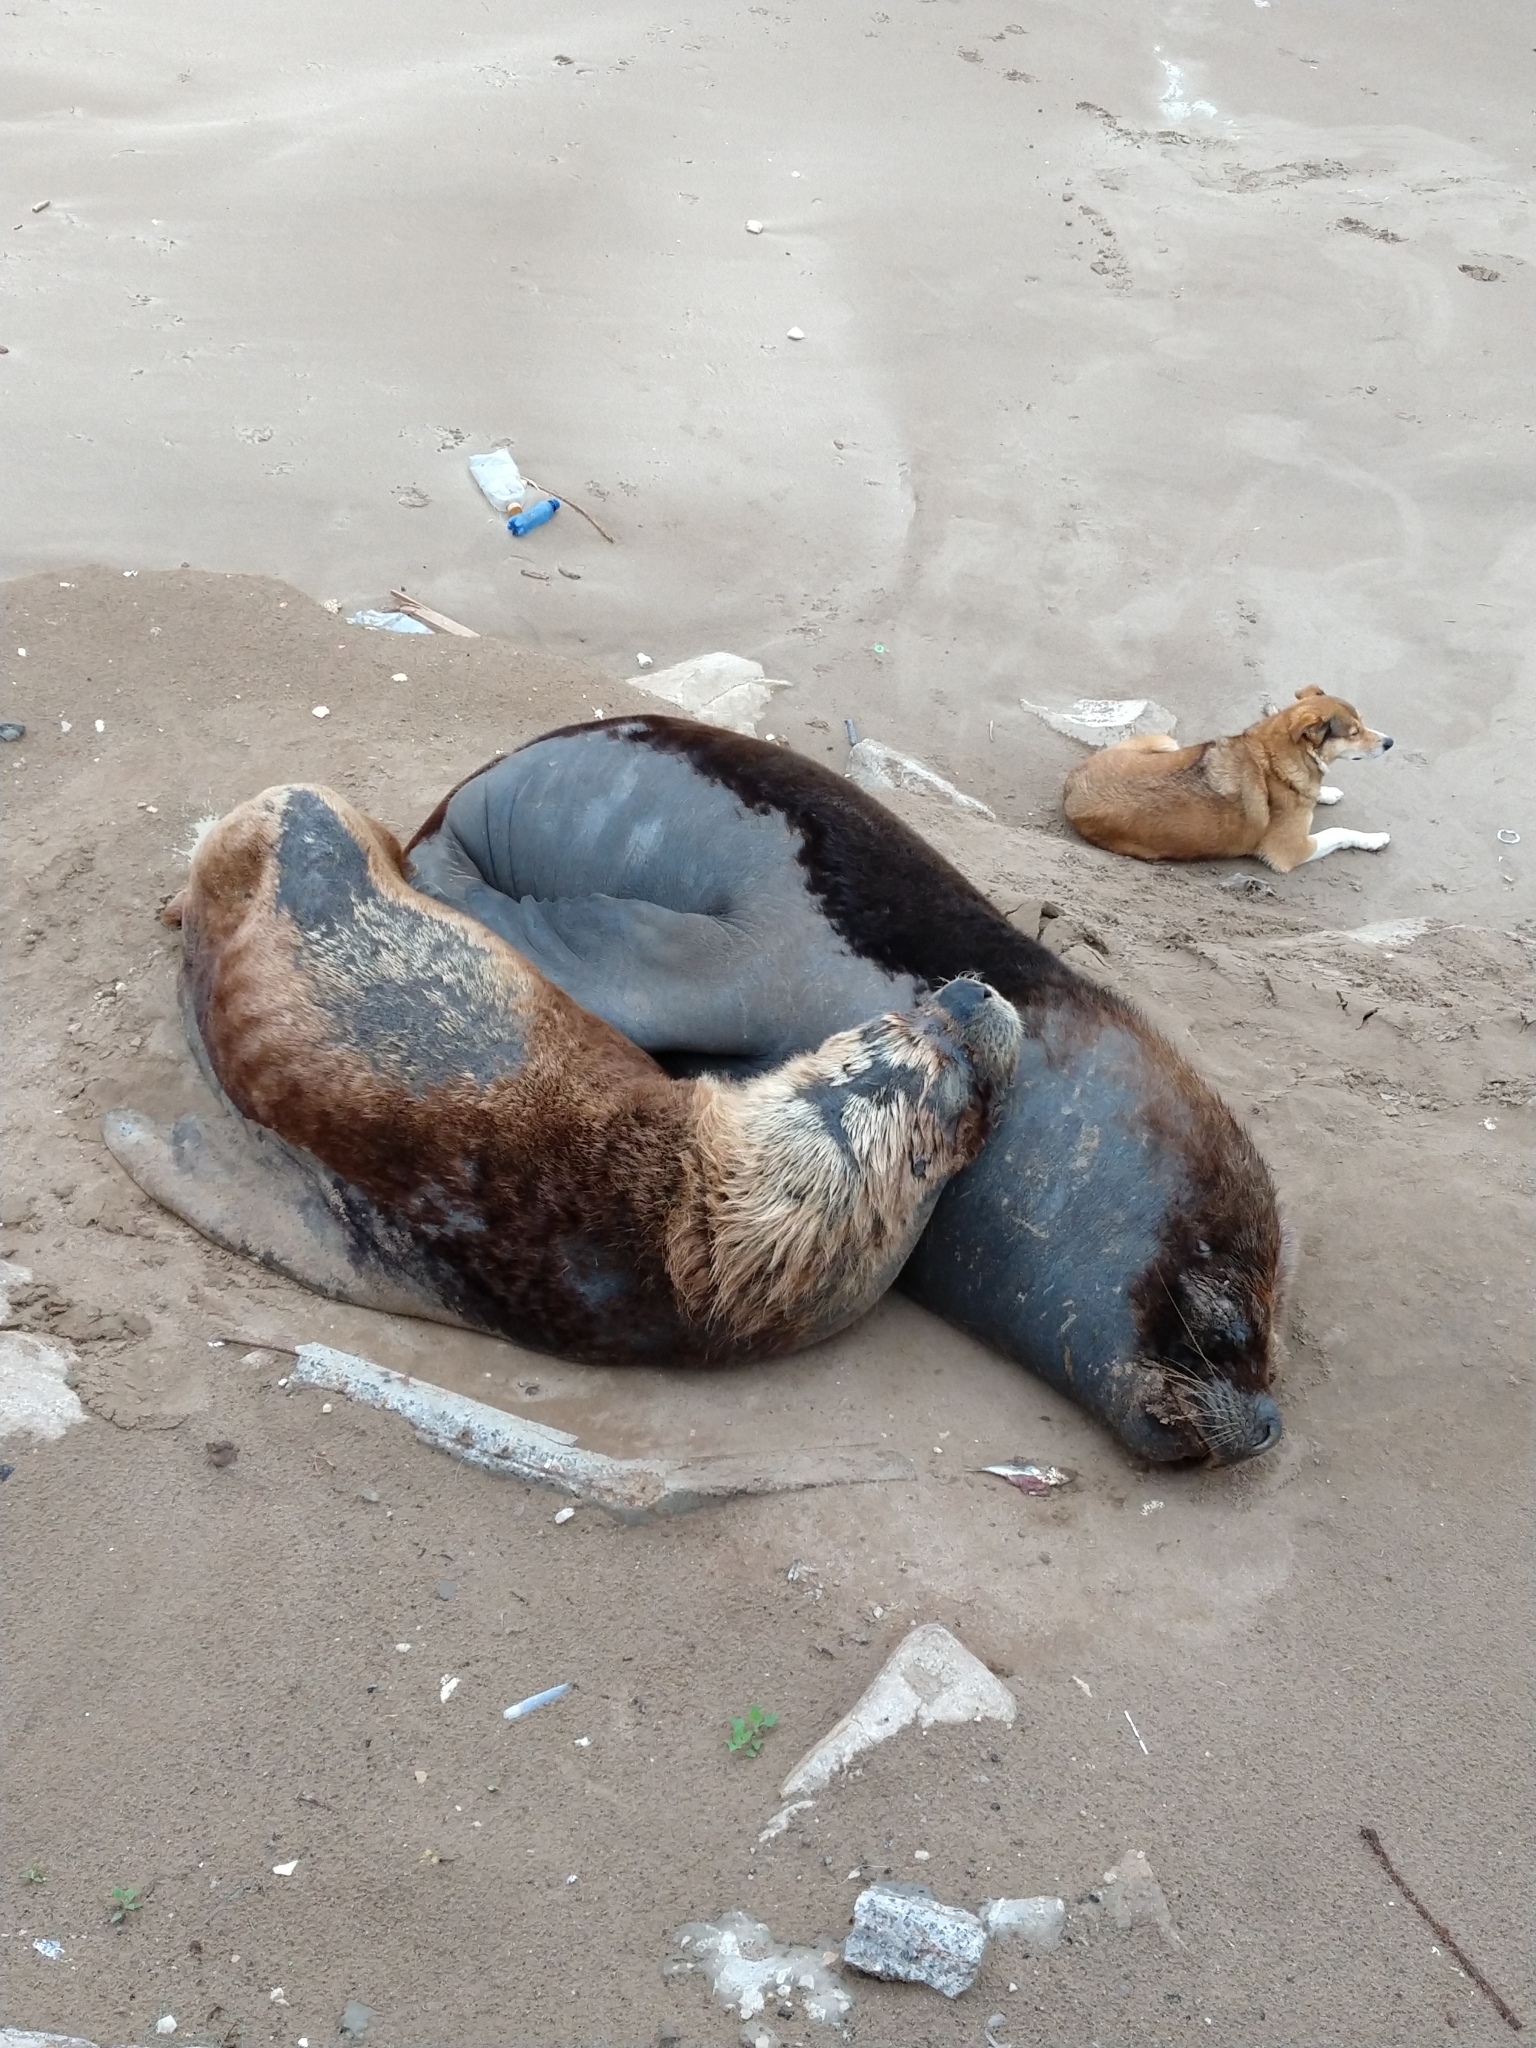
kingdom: Animalia
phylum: Chordata
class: Mammalia
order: Carnivora
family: Otariidae
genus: Otaria
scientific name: Otaria byronia
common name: South american sea lion
